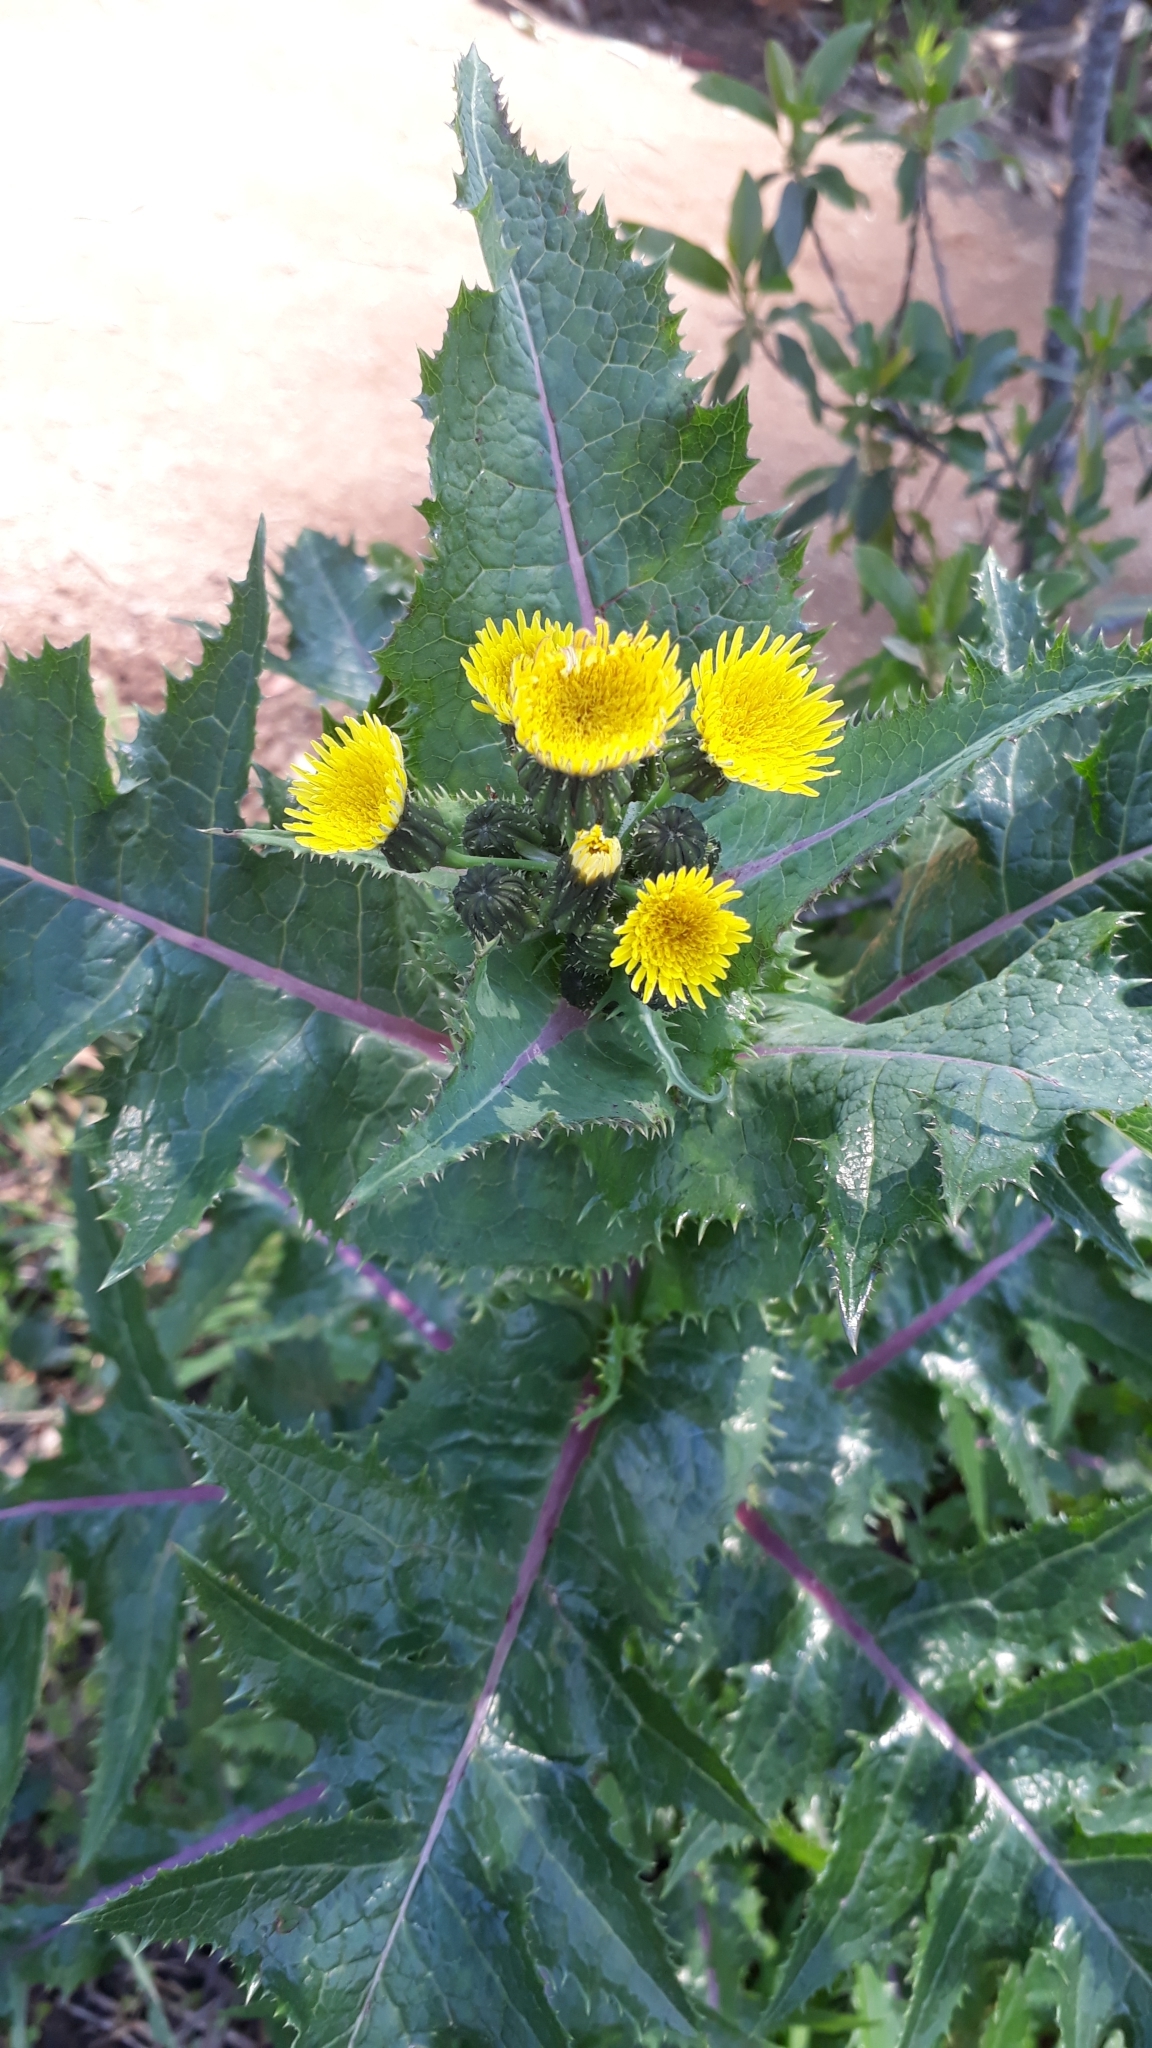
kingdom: Plantae
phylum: Tracheophyta
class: Magnoliopsida
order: Asterales
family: Asteraceae
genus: Sonchus
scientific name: Sonchus asper
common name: Prickly sow-thistle
